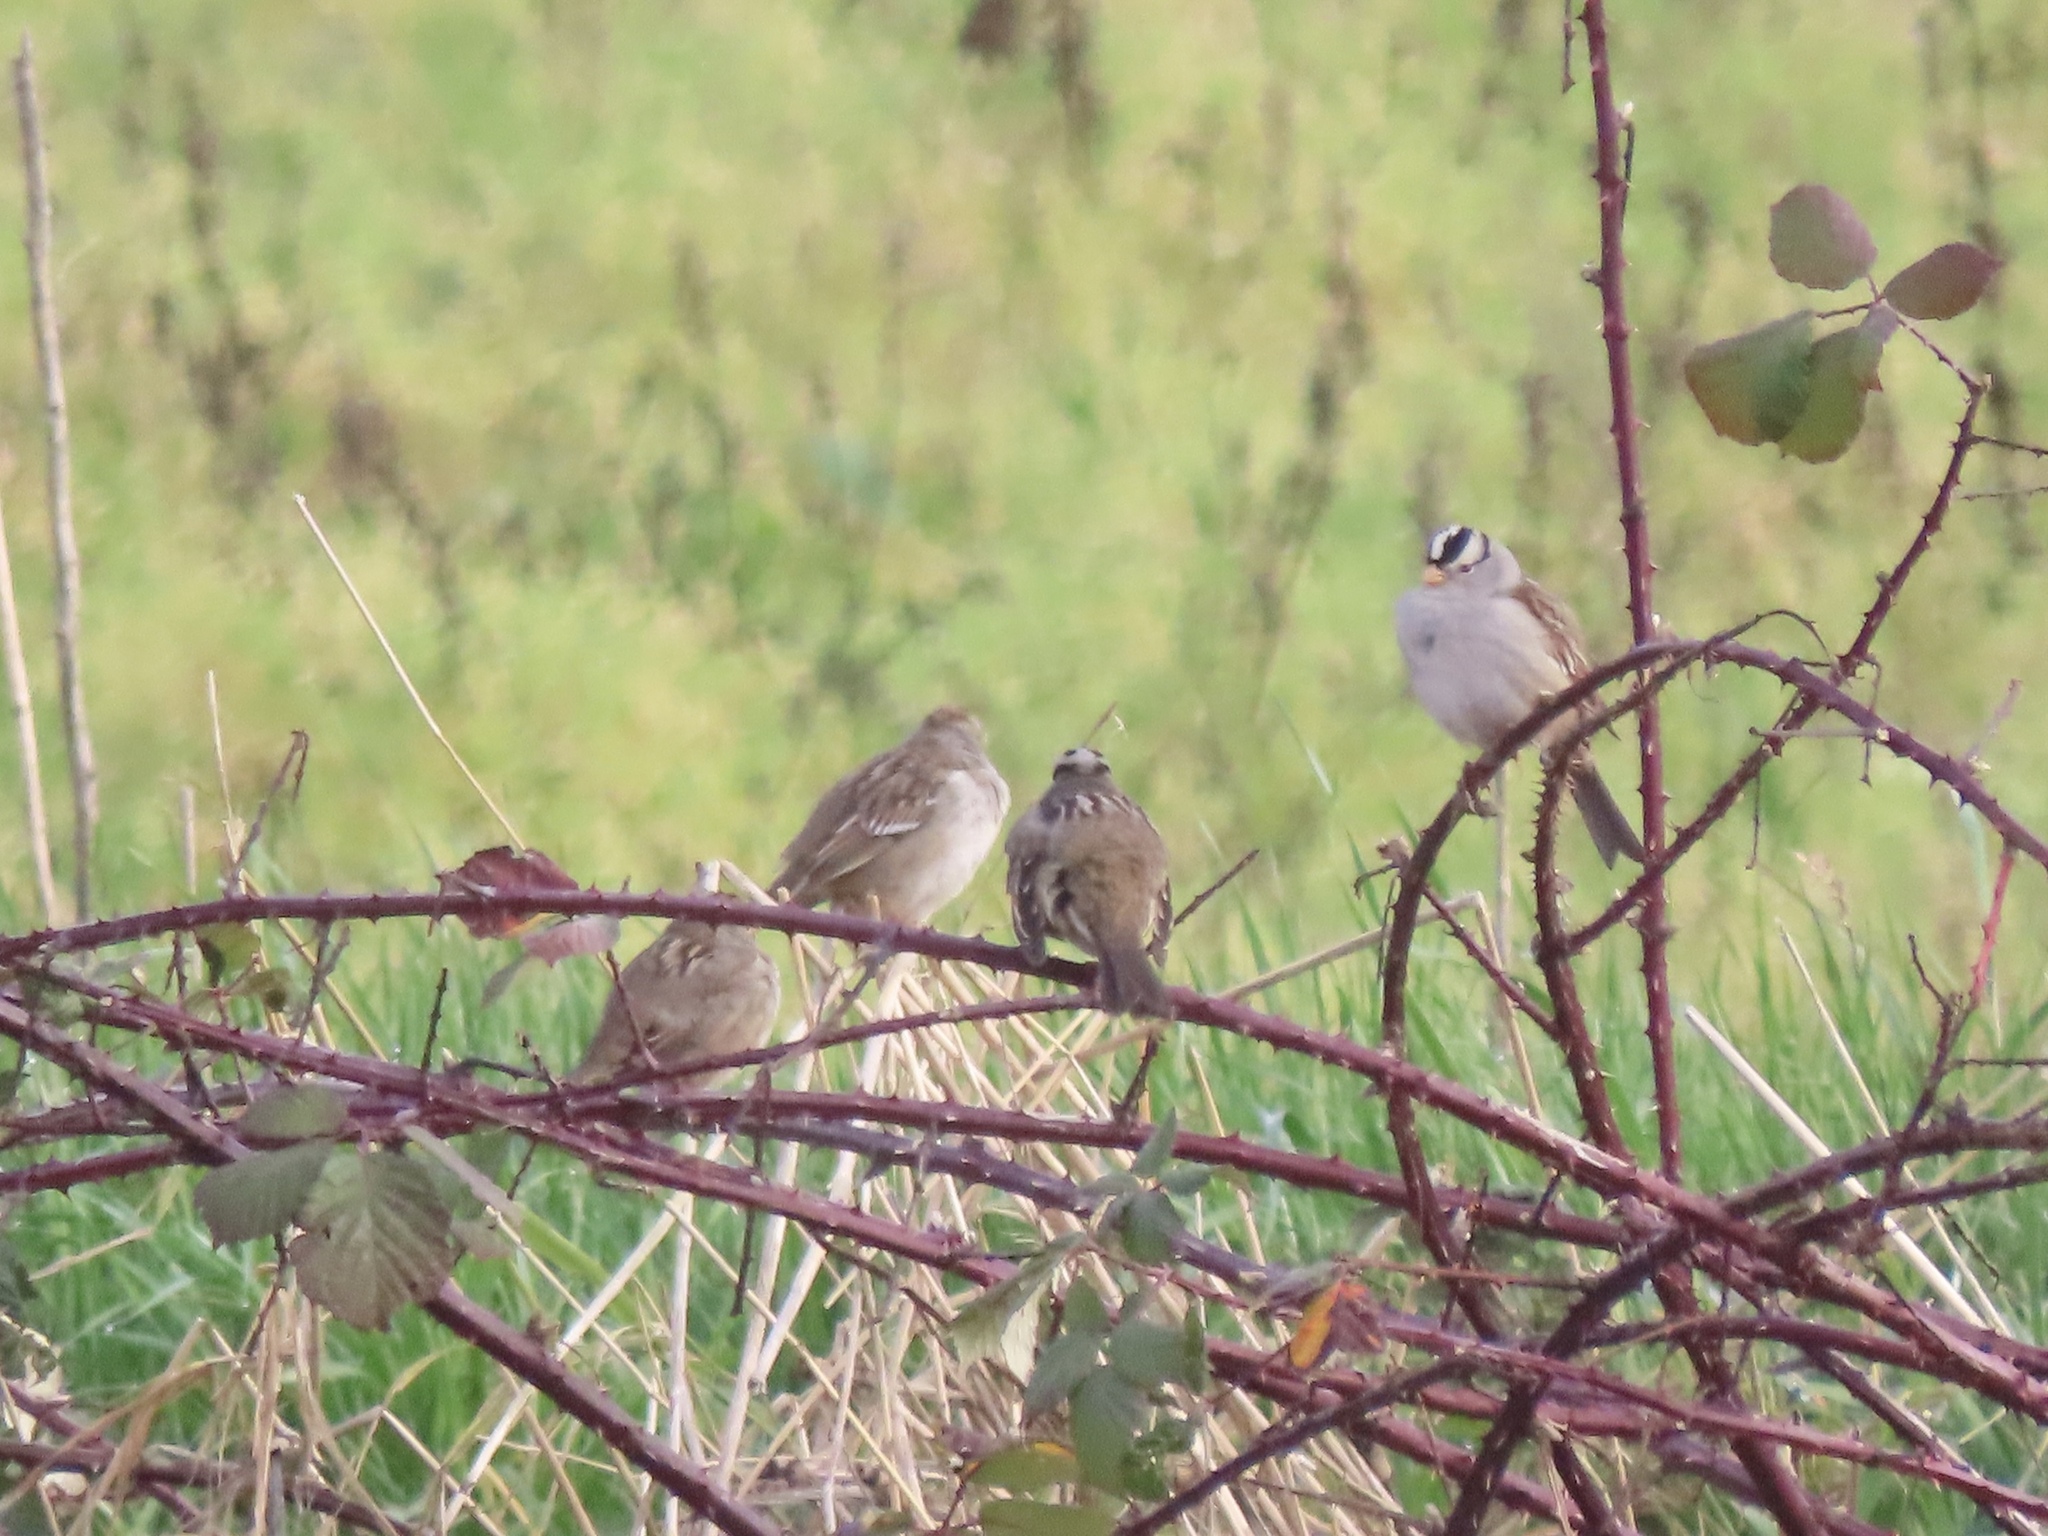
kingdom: Animalia
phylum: Chordata
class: Aves
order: Passeriformes
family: Passerellidae
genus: Zonotrichia
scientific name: Zonotrichia leucophrys
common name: White-crowned sparrow
